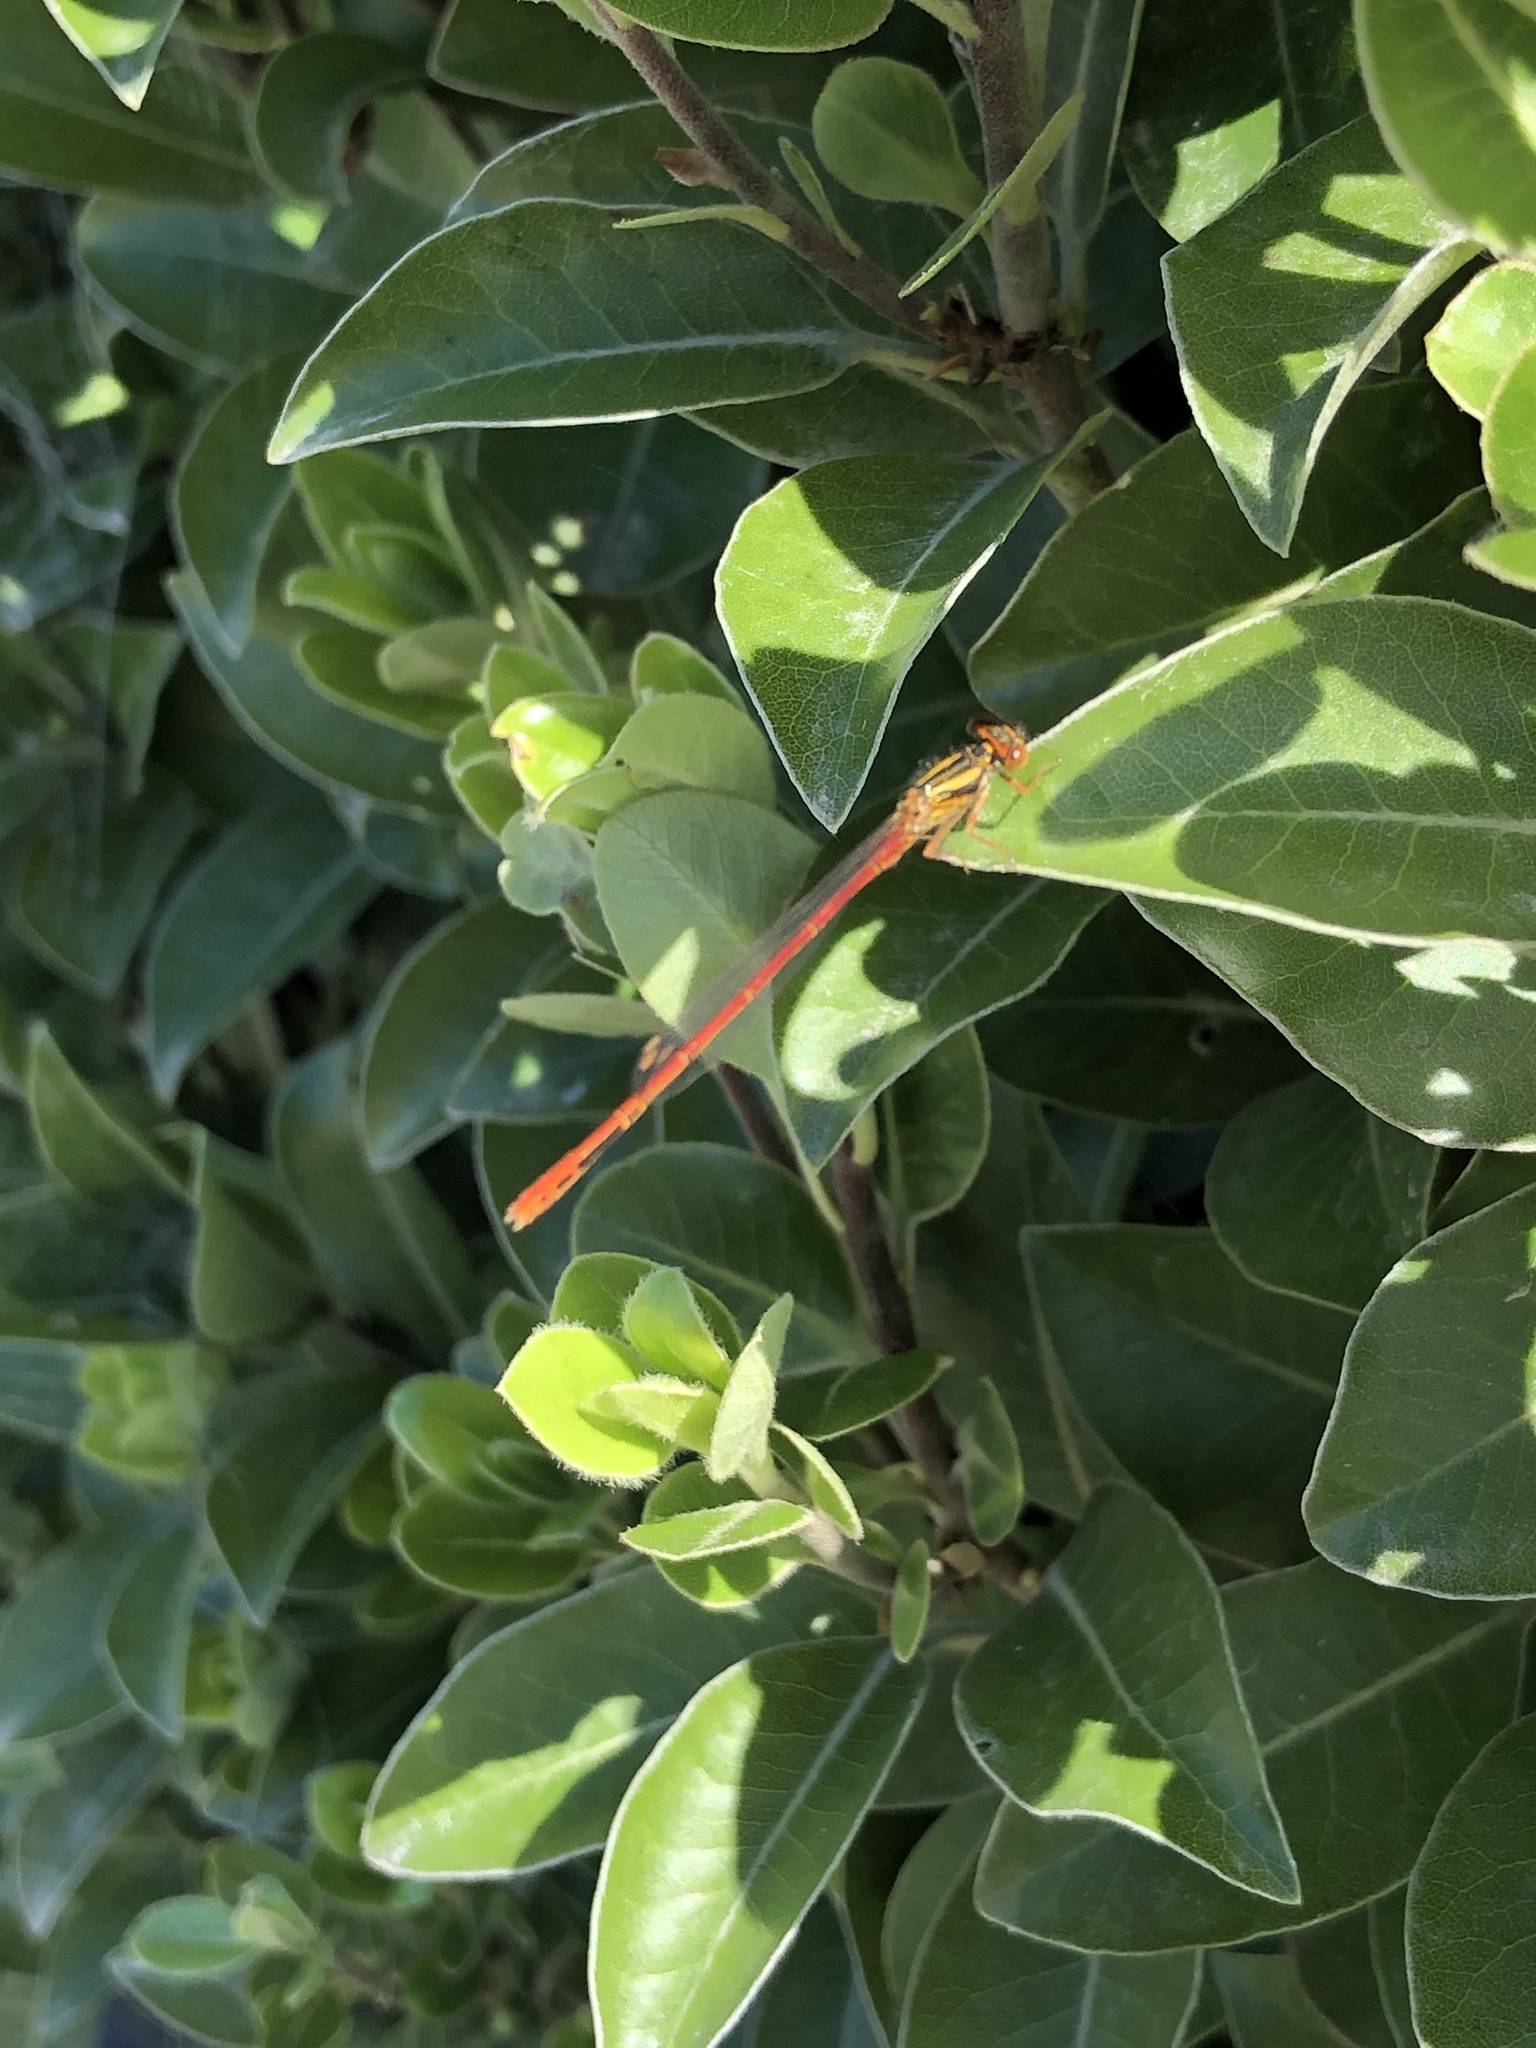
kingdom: Animalia
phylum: Arthropoda
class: Insecta
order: Odonata
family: Coenagrionidae
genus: Xanthocnemis
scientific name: Xanthocnemis zealandica
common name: Common redcoat damselfly
